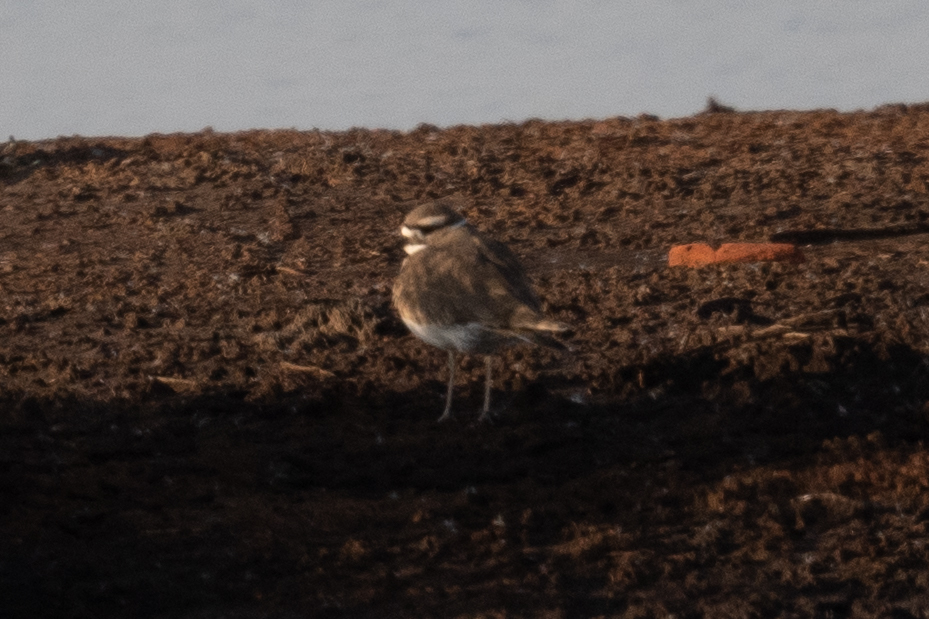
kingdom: Animalia
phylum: Chordata
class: Aves
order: Charadriiformes
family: Charadriidae
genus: Charadrius
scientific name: Charadrius vociferus
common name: Killdeer
